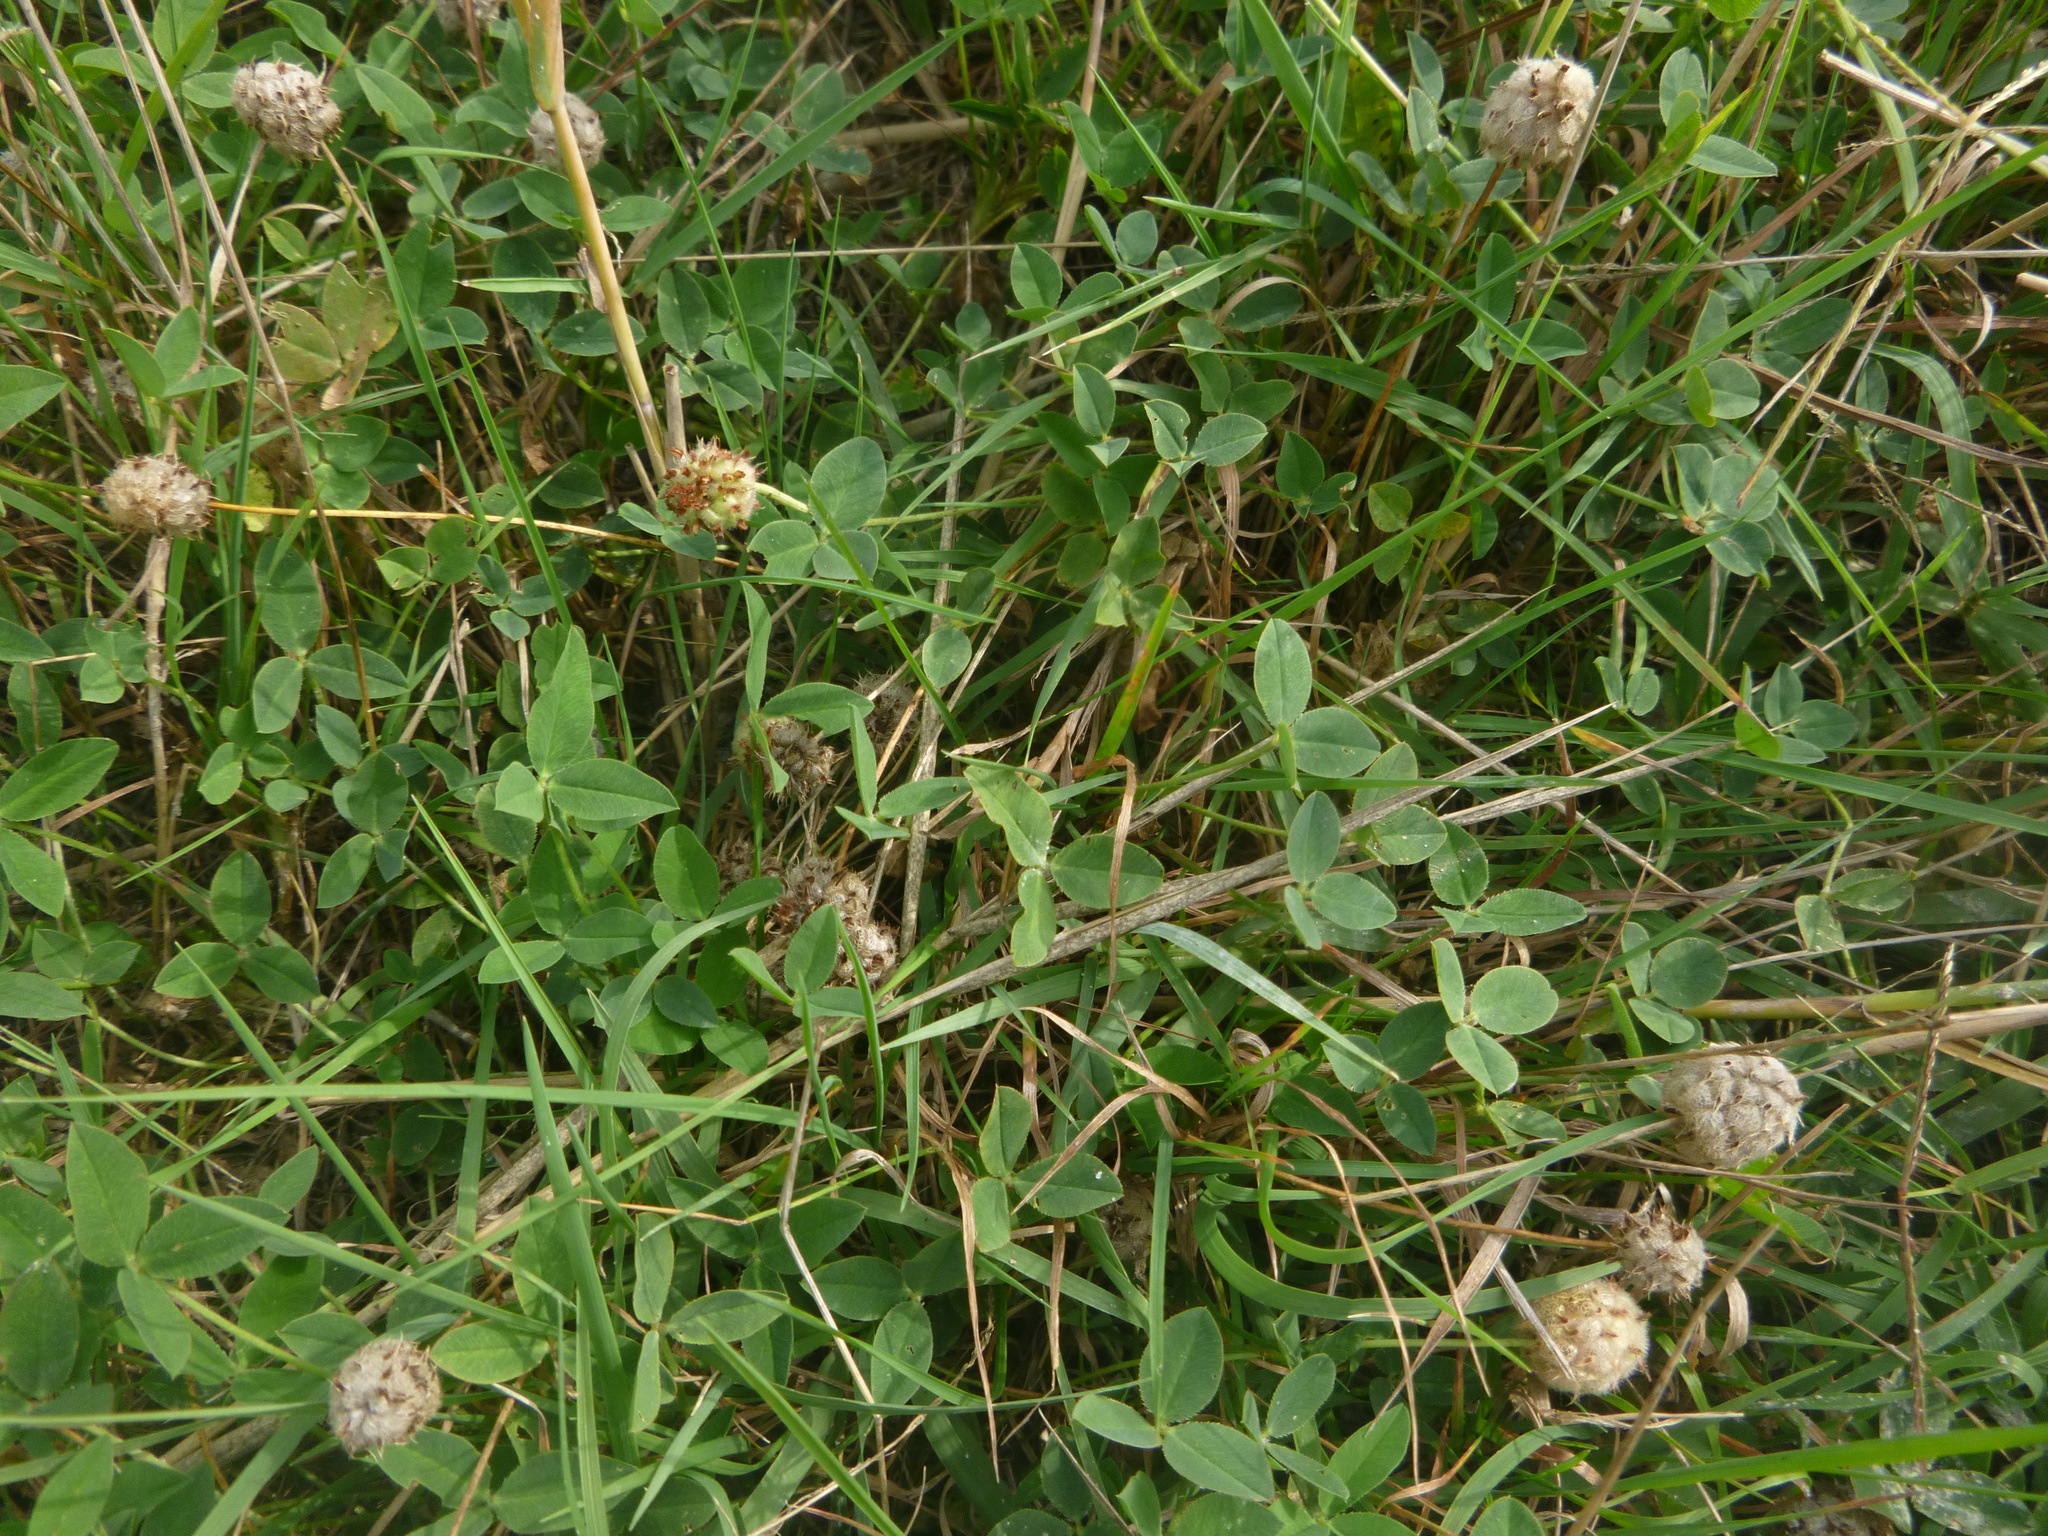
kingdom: Plantae
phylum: Tracheophyta
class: Magnoliopsida
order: Fabales
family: Fabaceae
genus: Trifolium
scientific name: Trifolium fragiferum
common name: Strawberry clover
